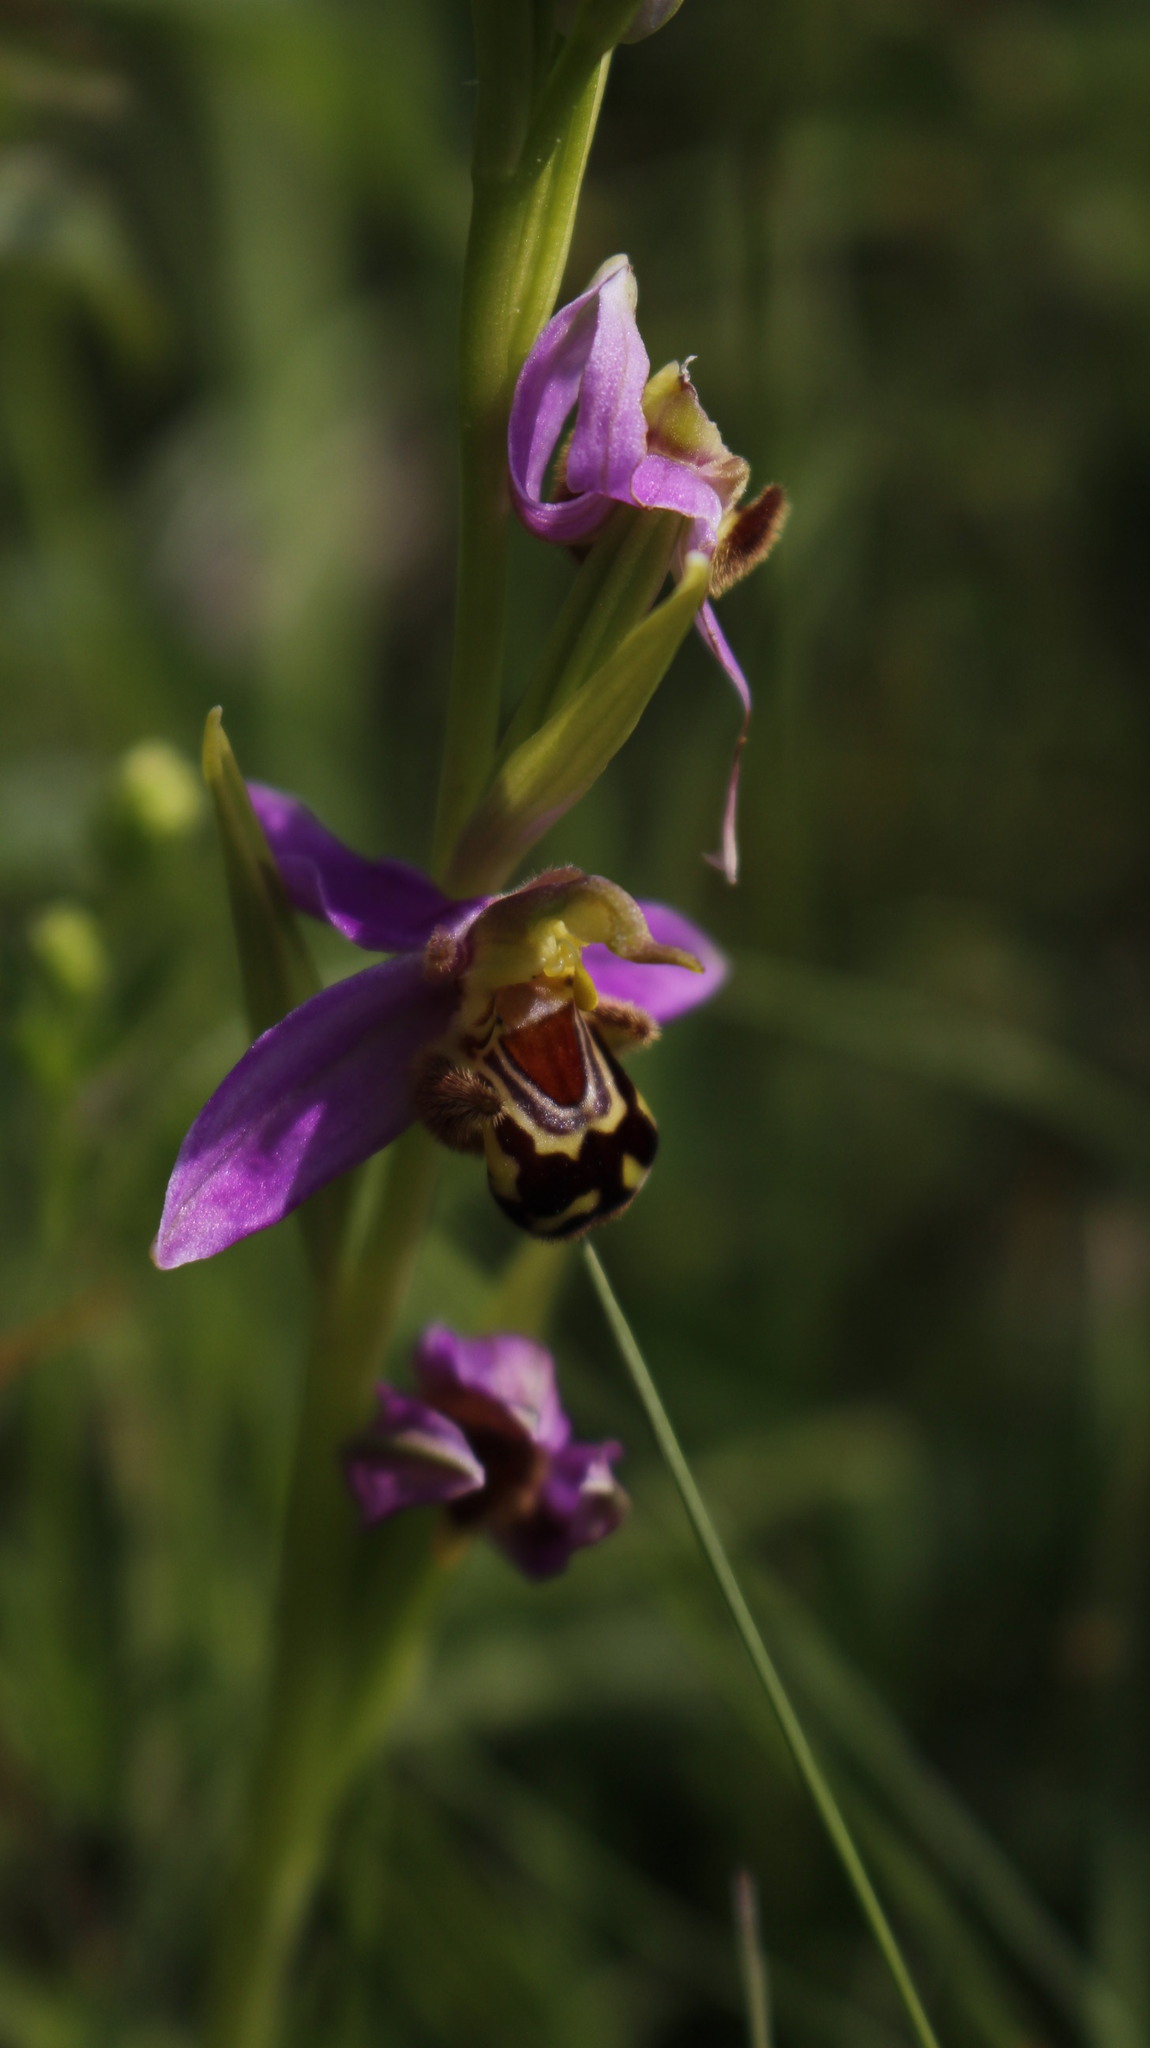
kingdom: Plantae
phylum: Tracheophyta
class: Liliopsida
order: Asparagales
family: Orchidaceae
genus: Ophrys
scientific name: Ophrys apifera
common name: Bee orchid
